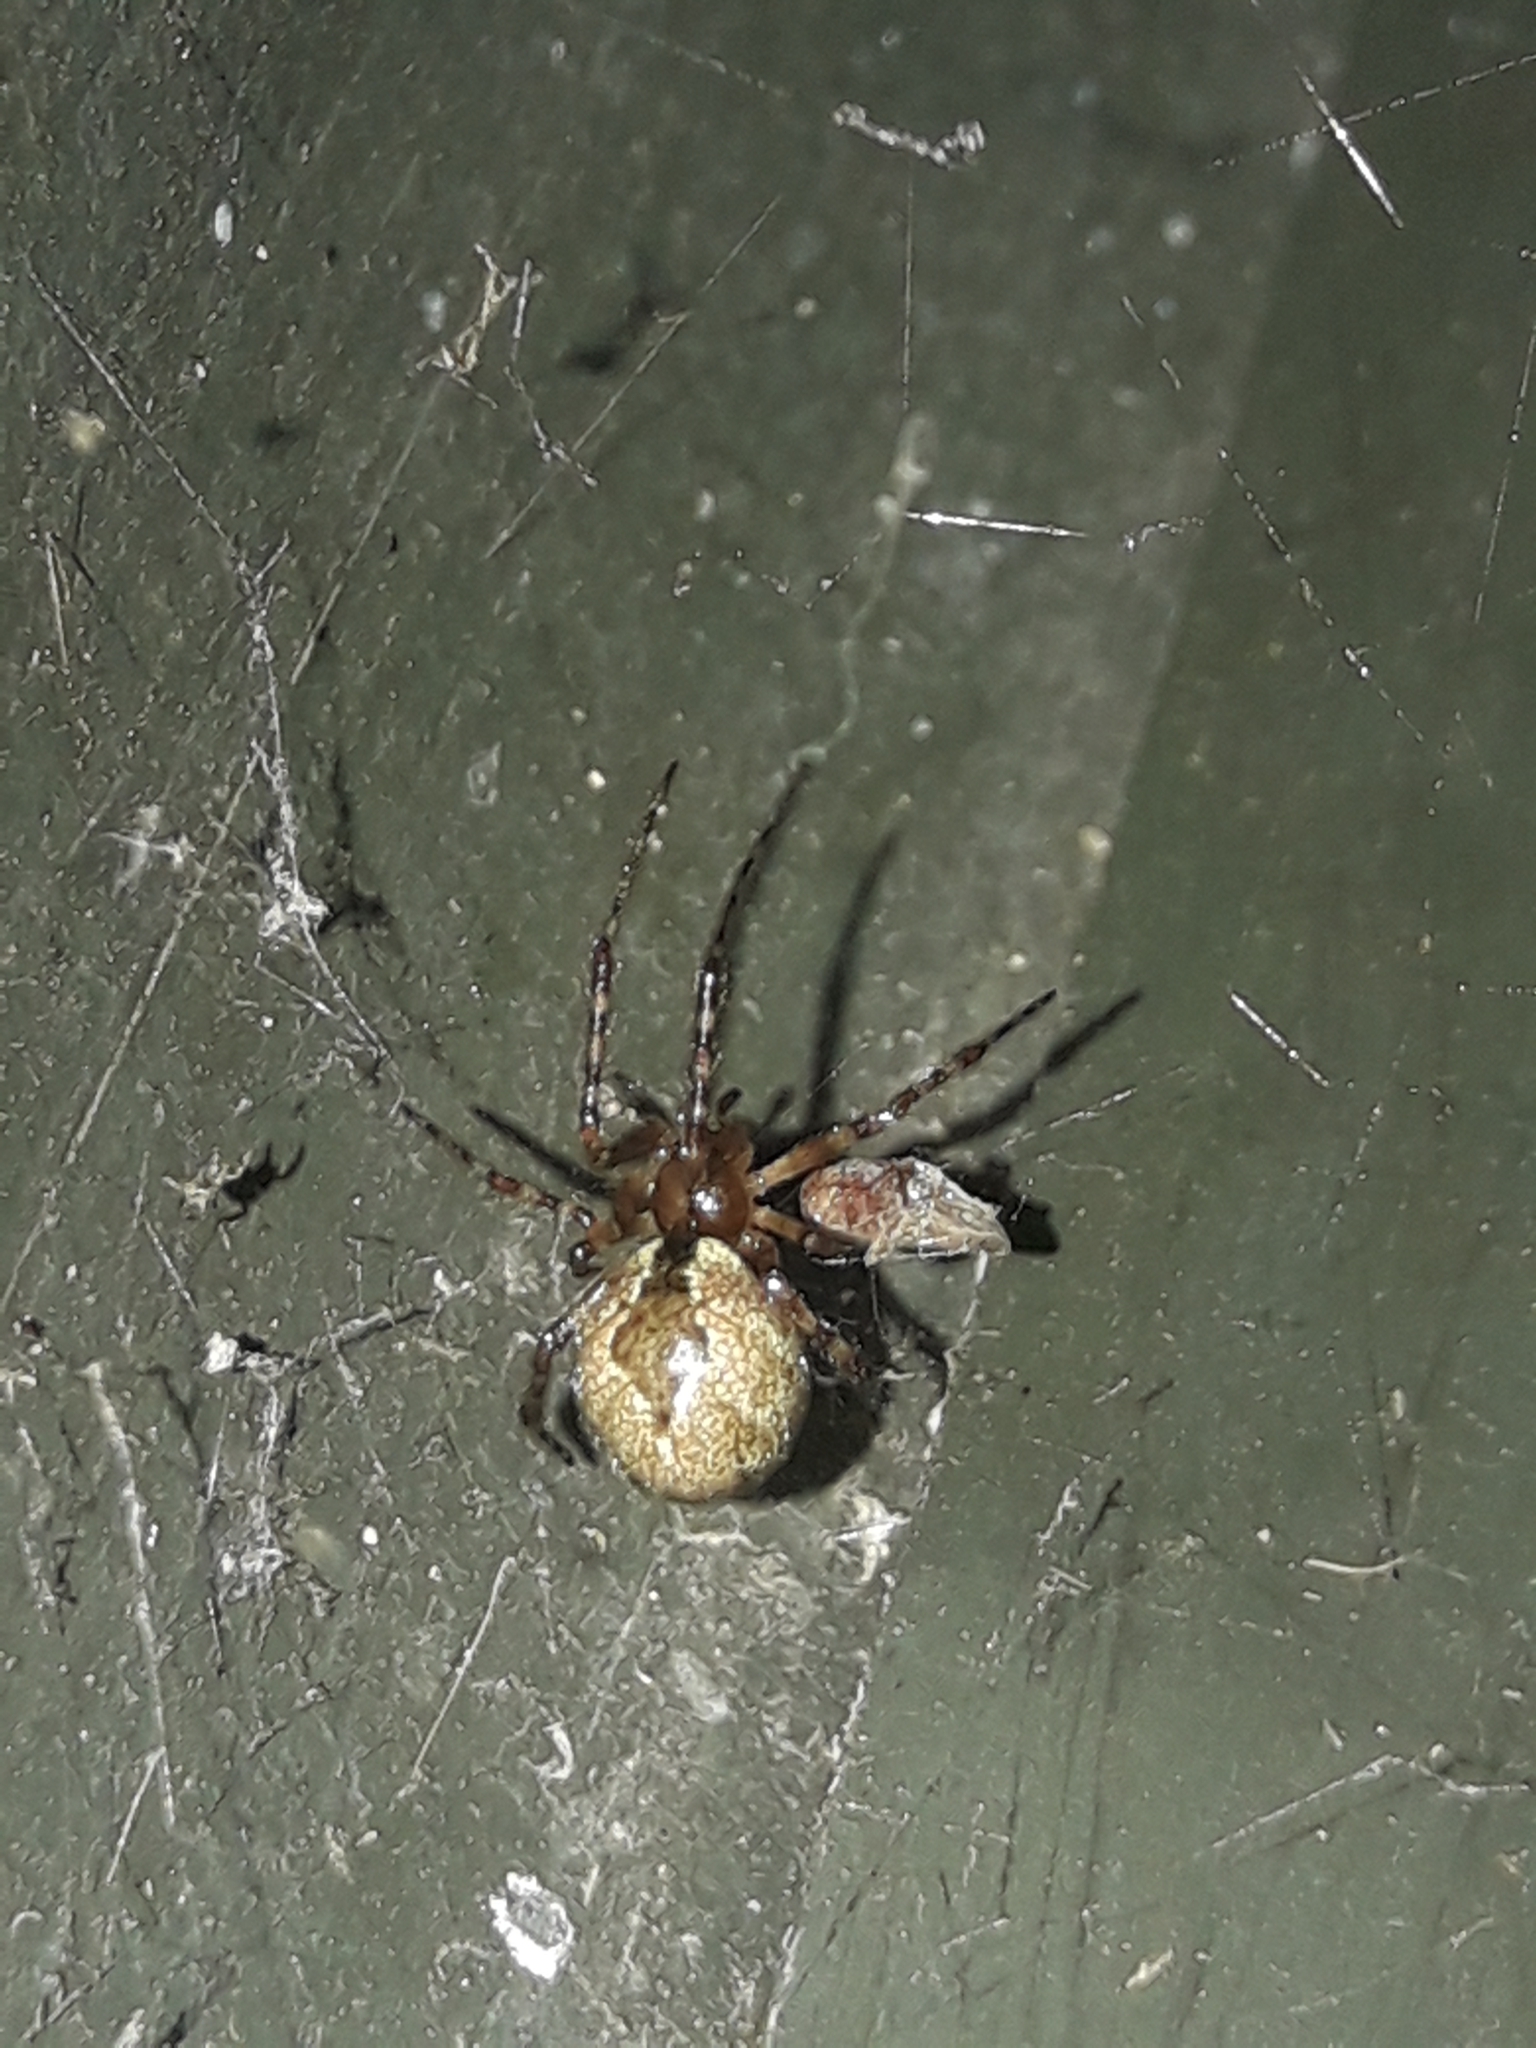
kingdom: Animalia
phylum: Arthropoda
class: Arachnida
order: Araneae
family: Theridiidae
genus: Cryptachaea
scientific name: Cryptachaea veruculata
